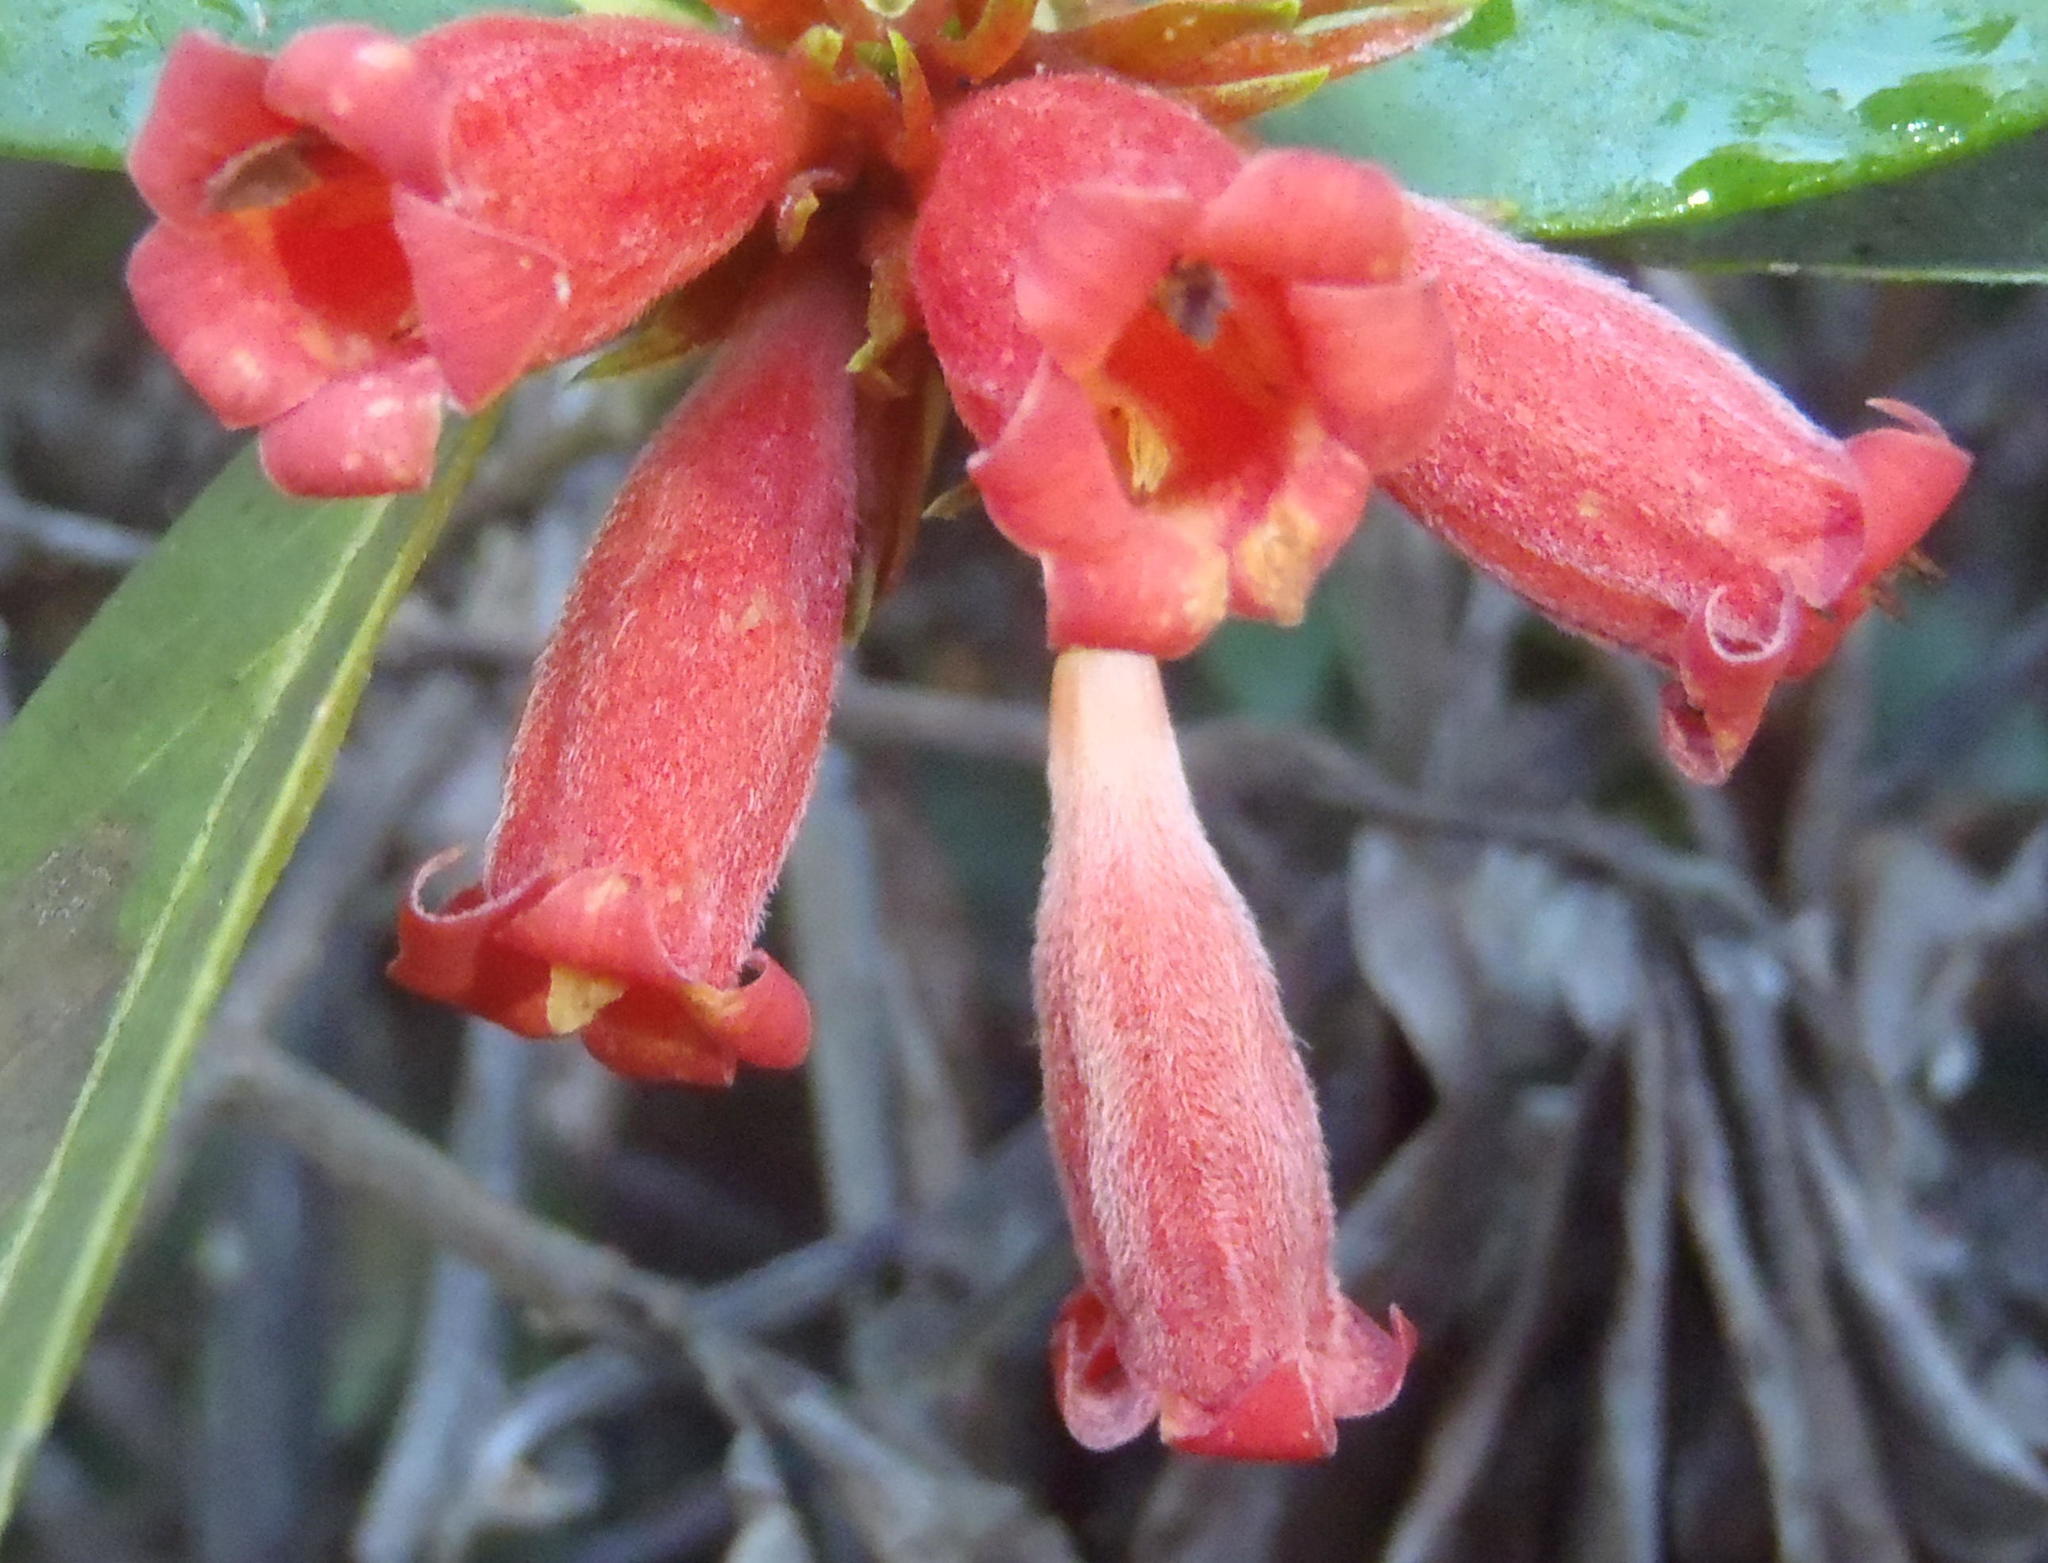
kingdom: Plantae
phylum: Tracheophyta
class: Magnoliopsida
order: Gentianales
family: Rubiaceae
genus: Burchellia
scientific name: Burchellia bubalina
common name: Wild pomegranate
